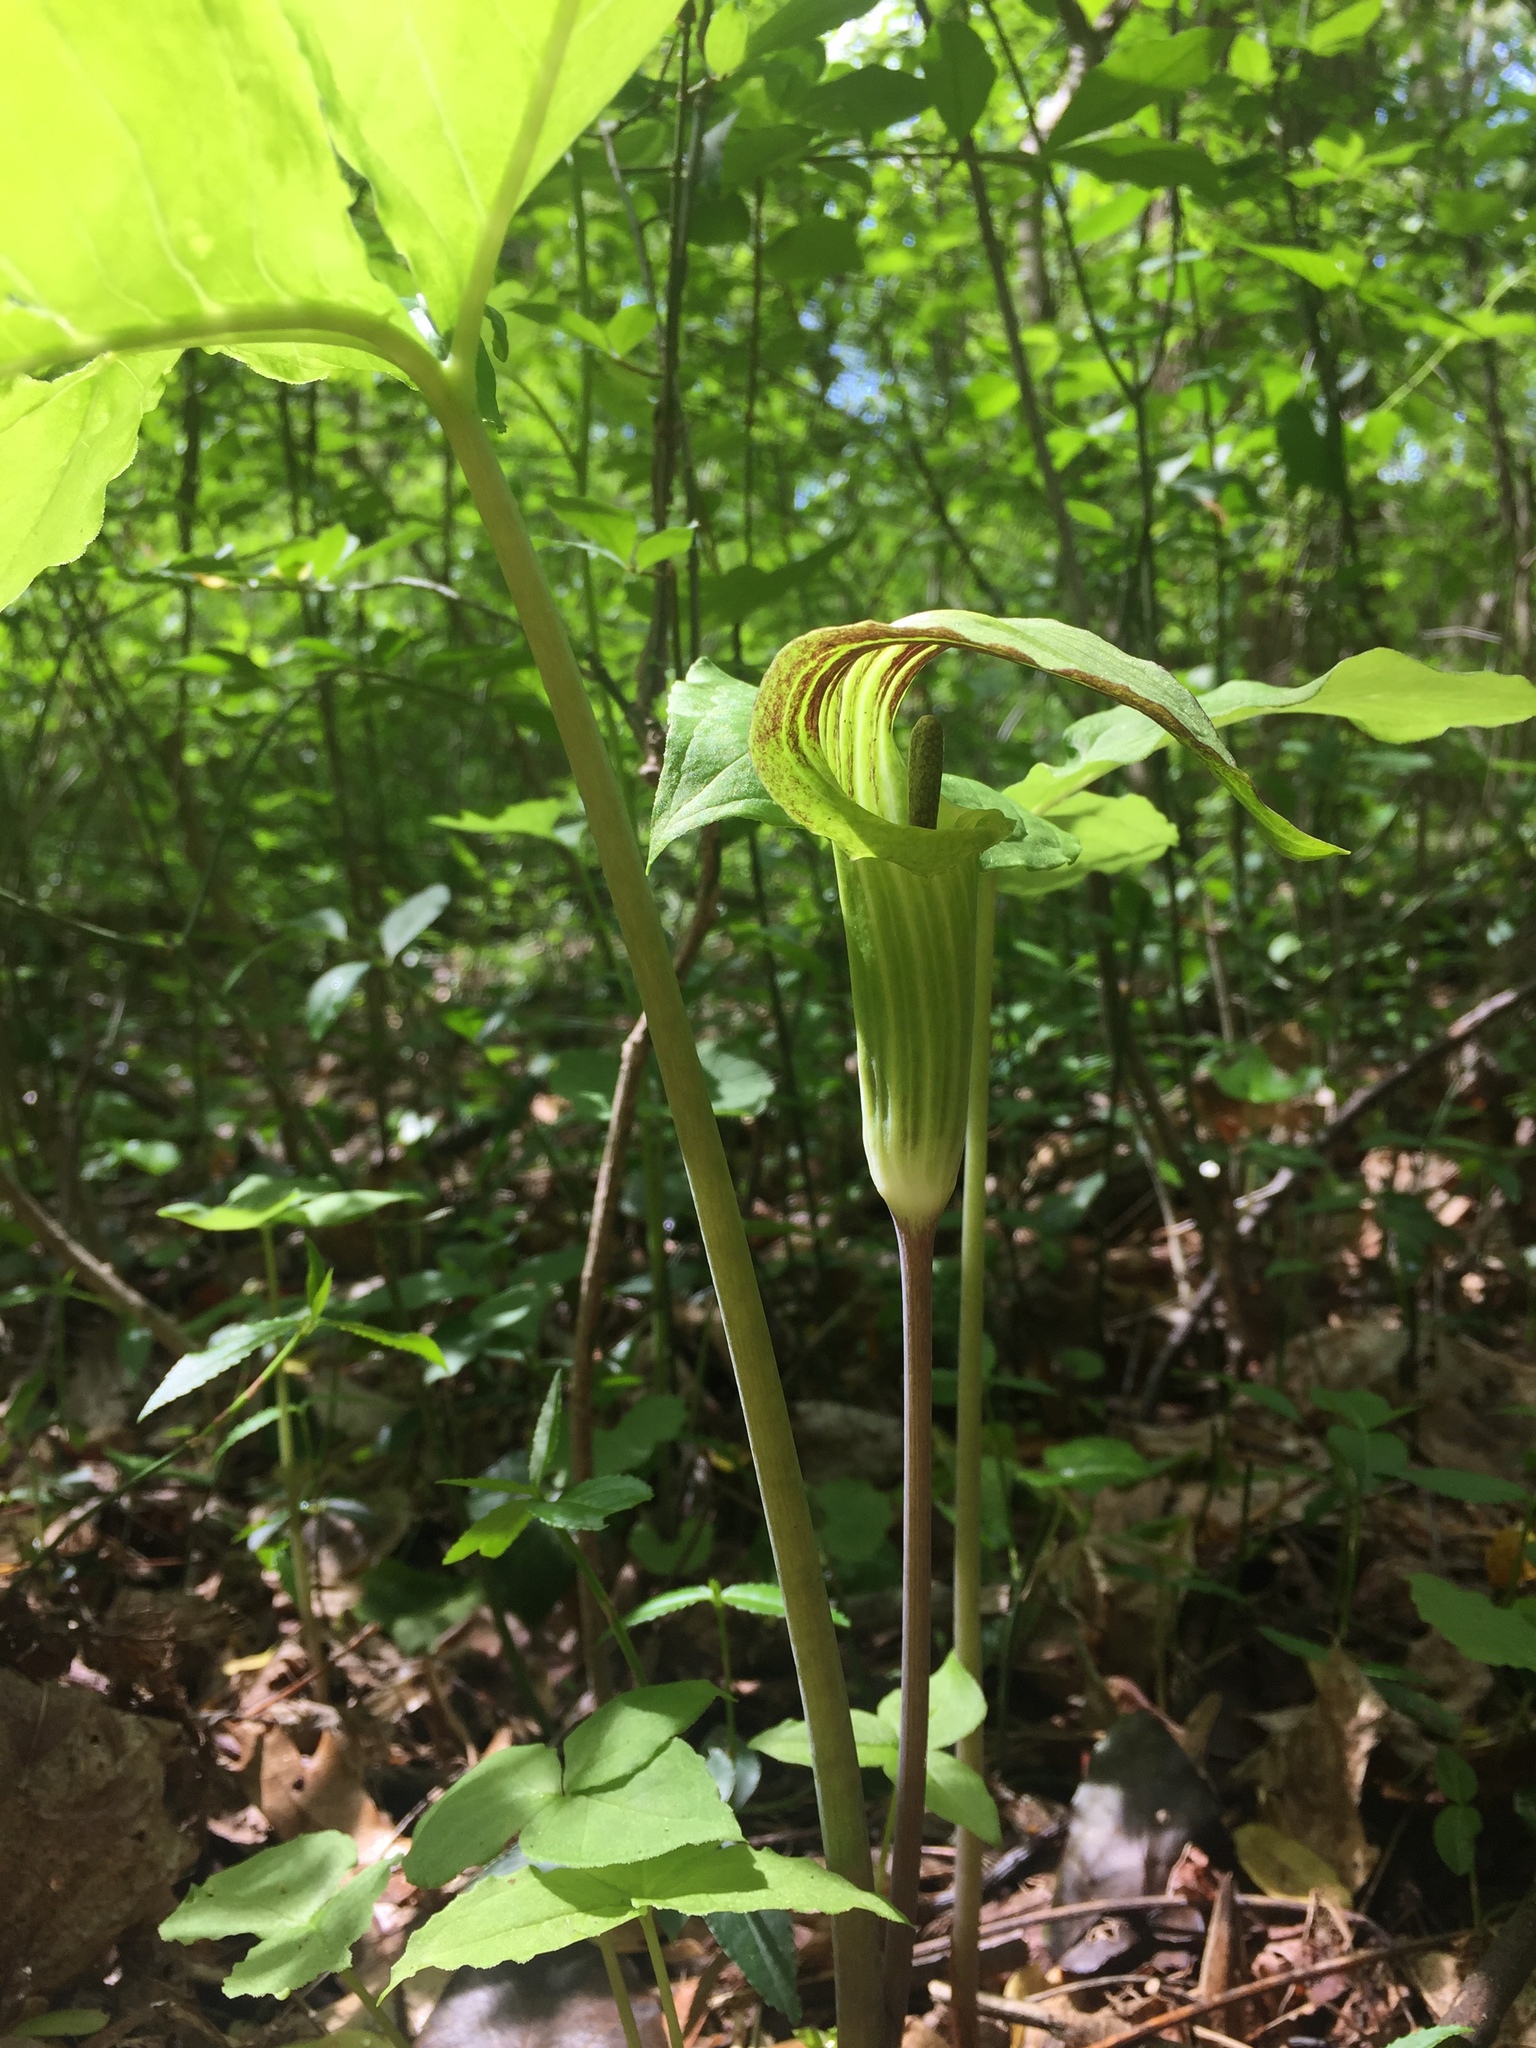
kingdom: Plantae
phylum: Tracheophyta
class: Liliopsida
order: Alismatales
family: Araceae
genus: Arisaema
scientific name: Arisaema triphyllum
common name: Jack-in-the-pulpit
